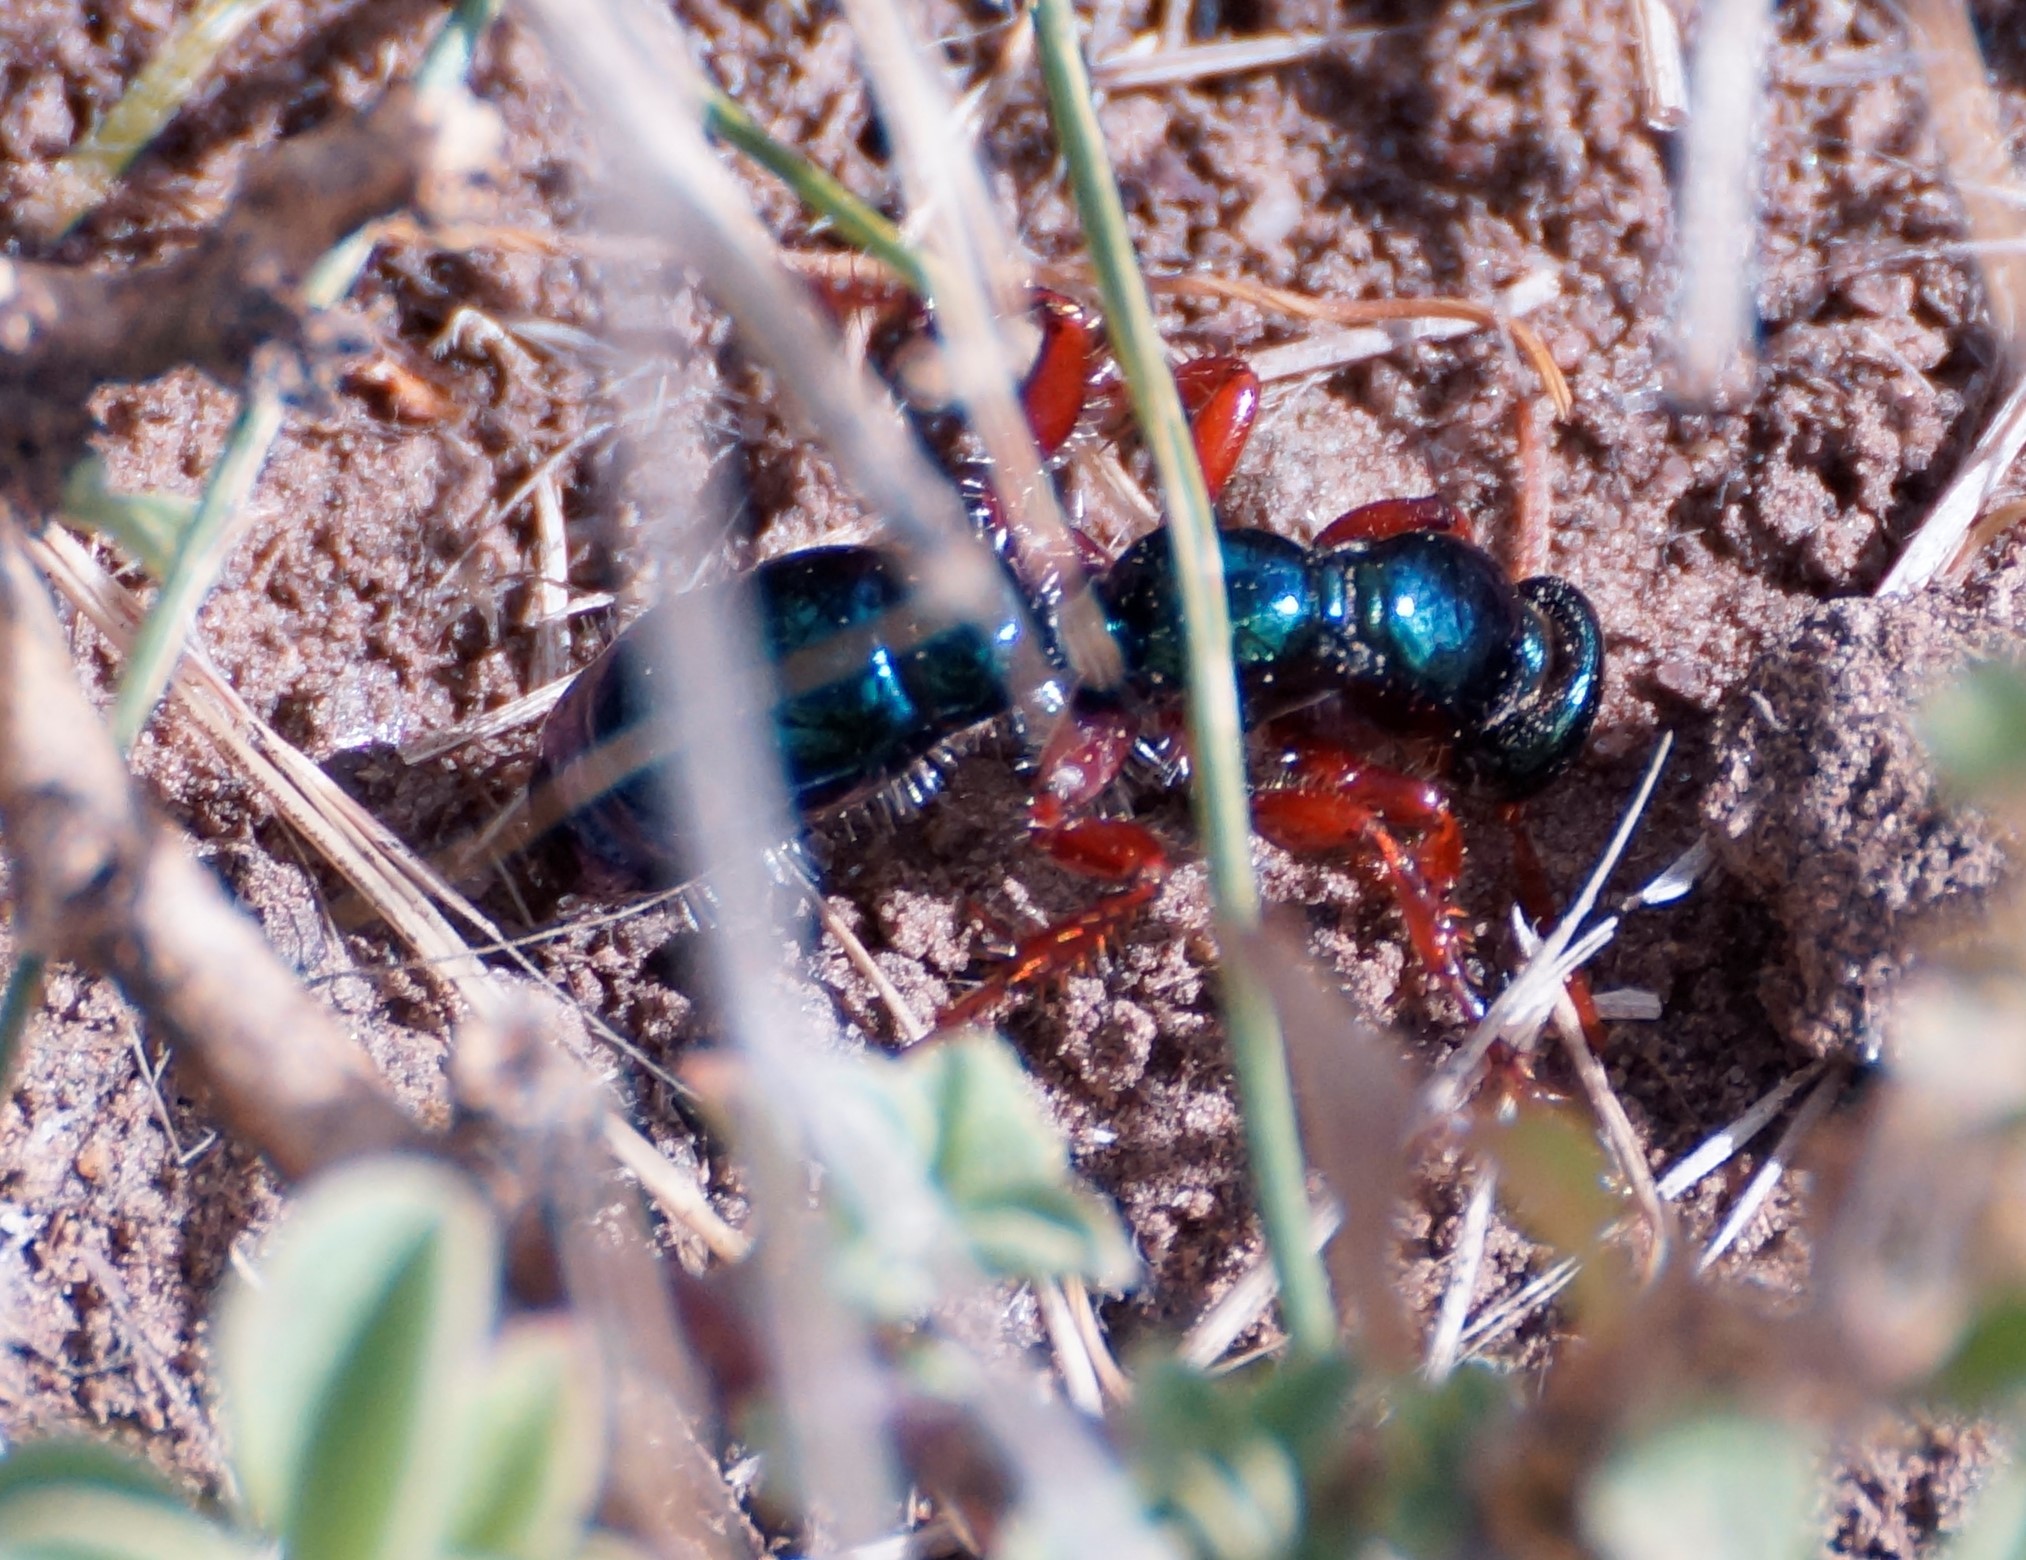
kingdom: Animalia
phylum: Arthropoda
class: Insecta
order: Hymenoptera
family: Tiphiidae
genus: Diamma
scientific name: Diamma
